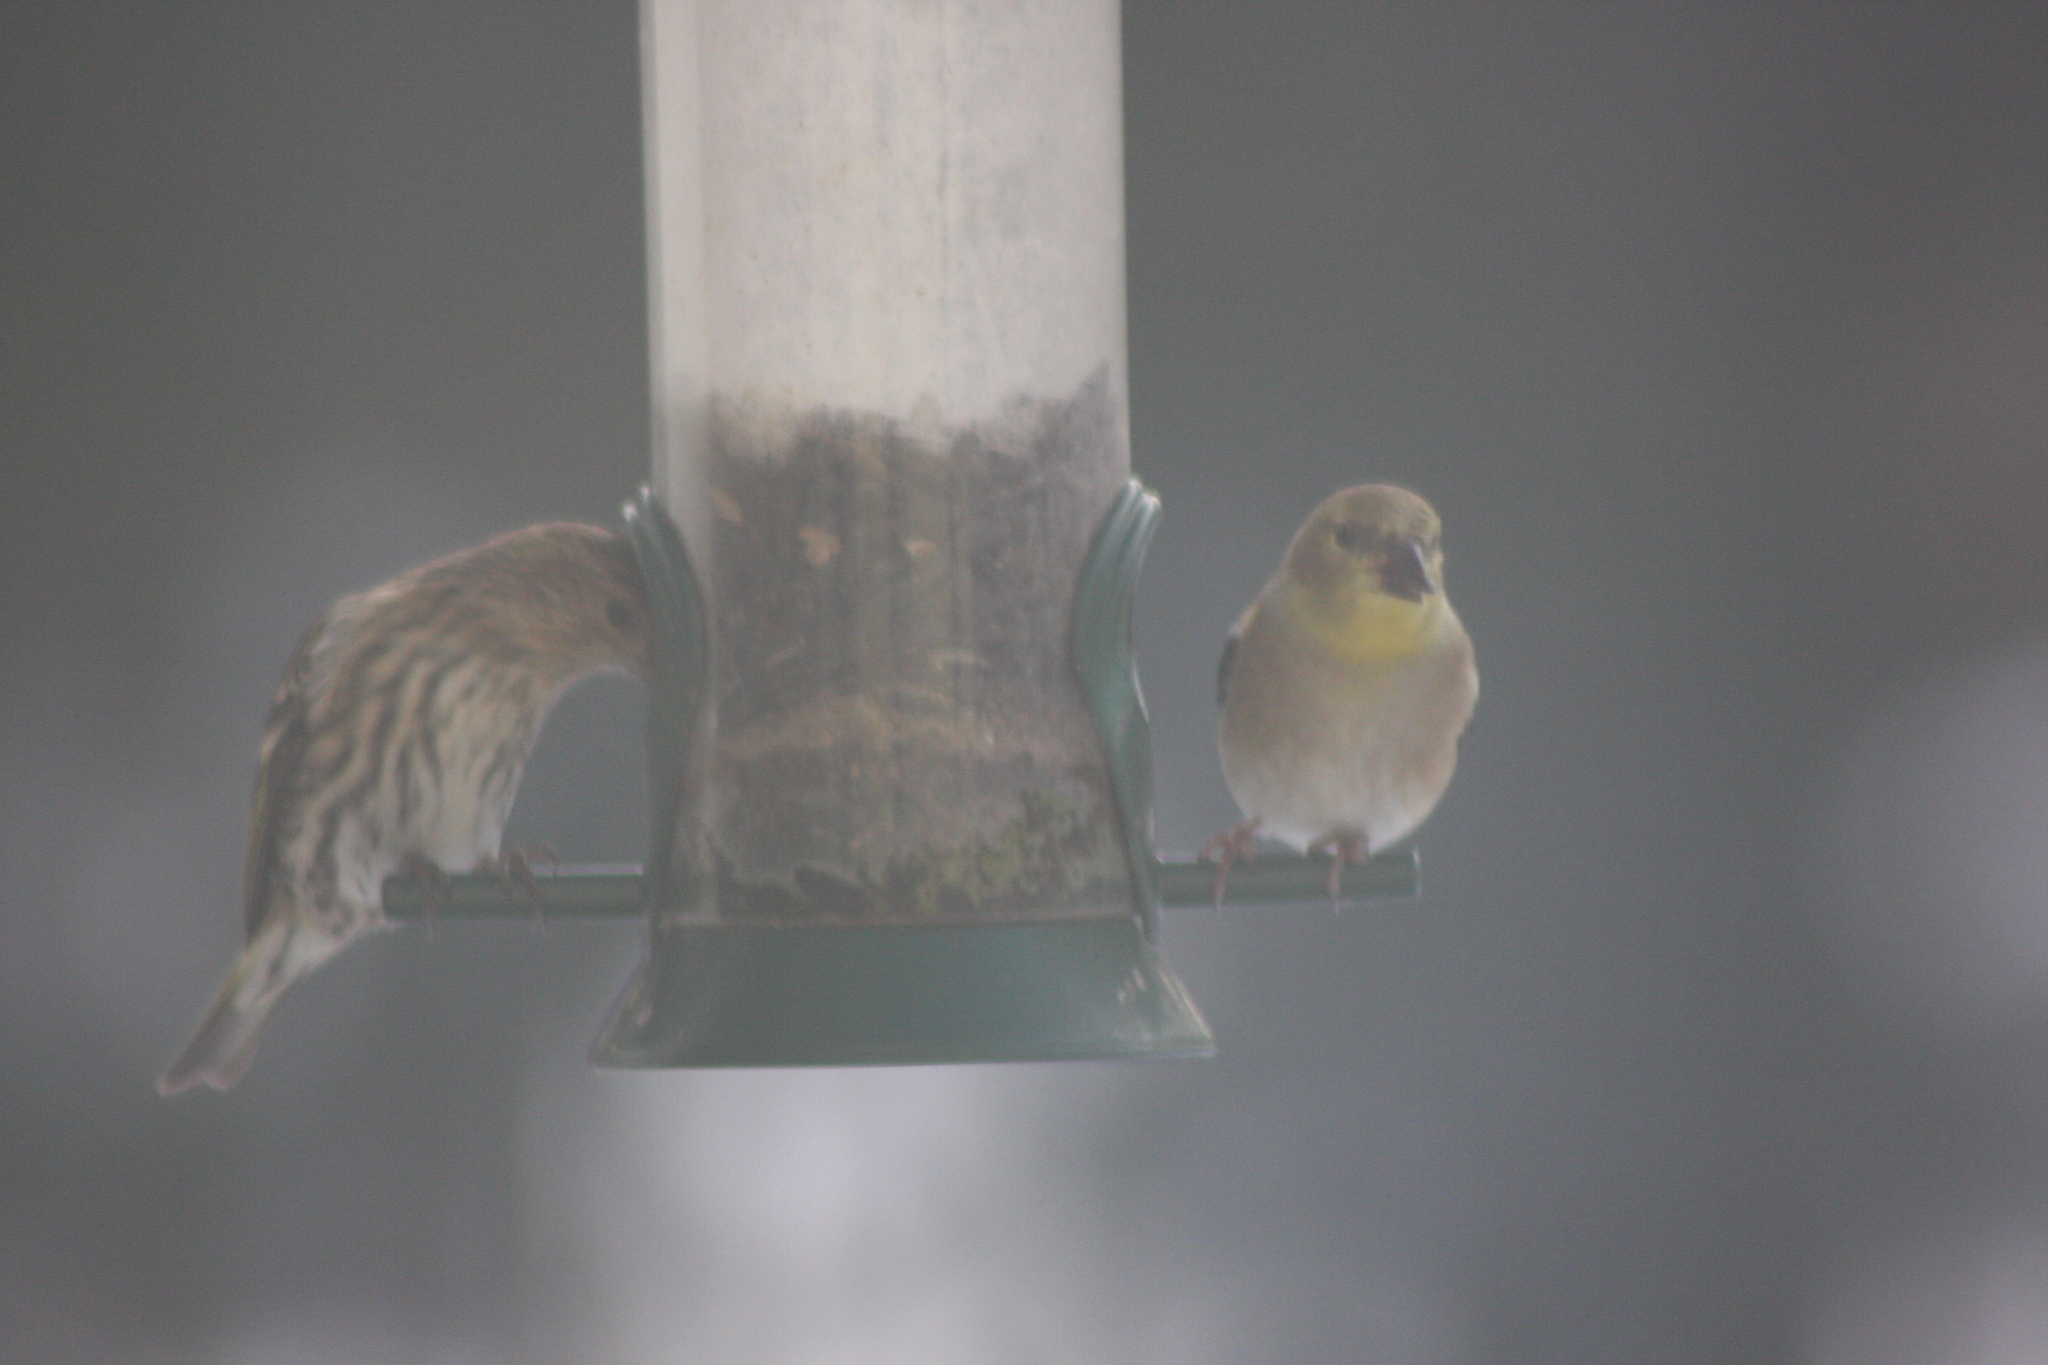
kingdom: Animalia
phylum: Chordata
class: Aves
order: Passeriformes
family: Fringillidae
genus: Spinus
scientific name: Spinus tristis
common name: American goldfinch
